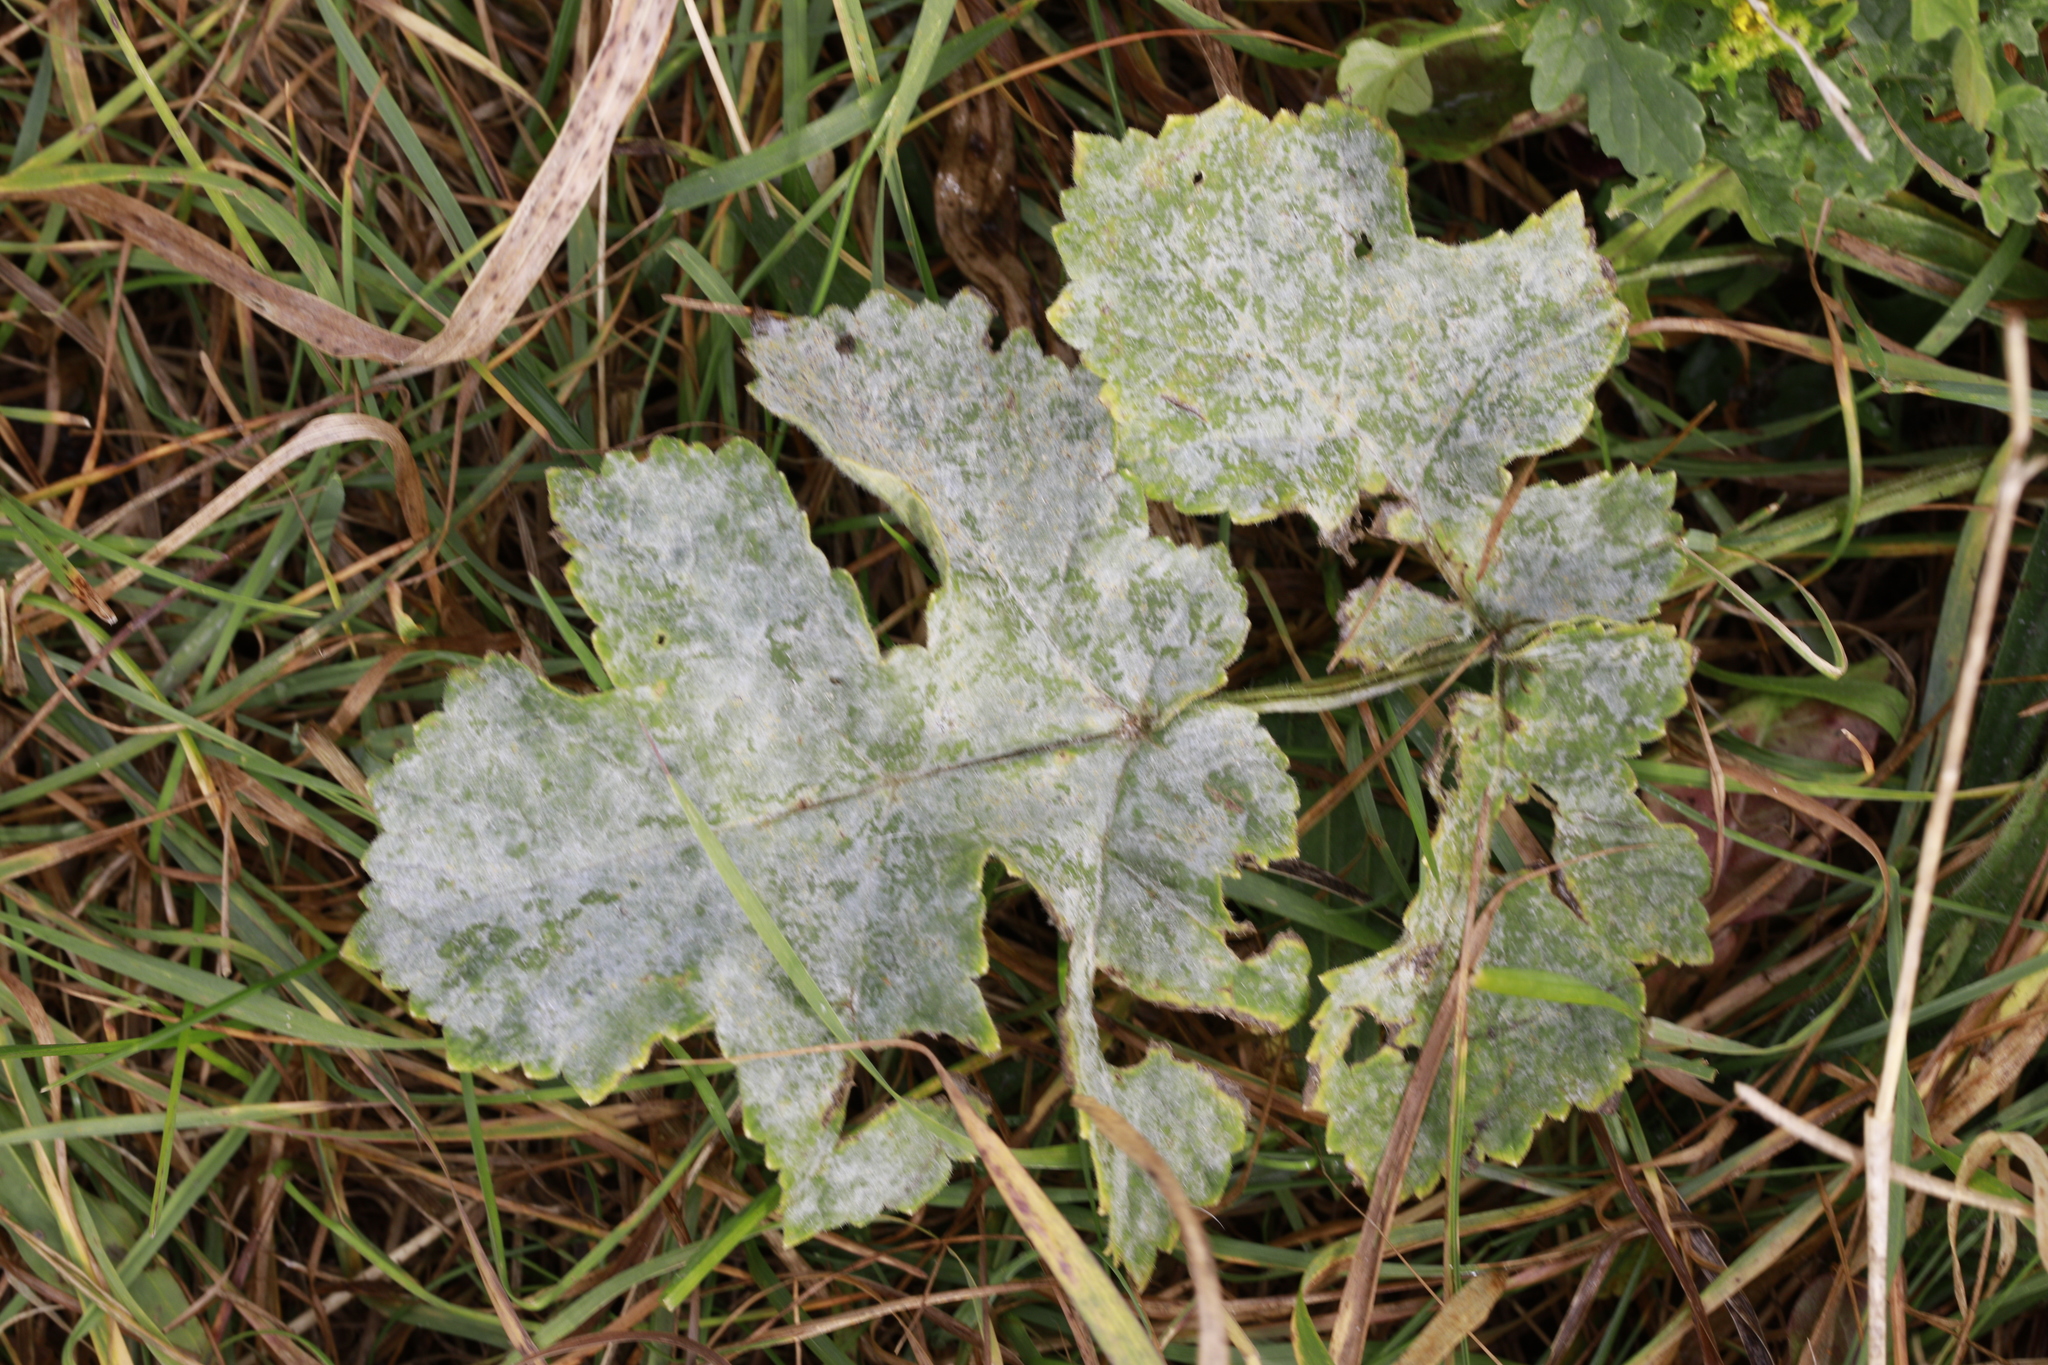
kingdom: Fungi
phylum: Ascomycota
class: Leotiomycetes
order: Helotiales
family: Erysiphaceae
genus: Erysiphe
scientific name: Erysiphe heraclei
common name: Umbellifer mildew
